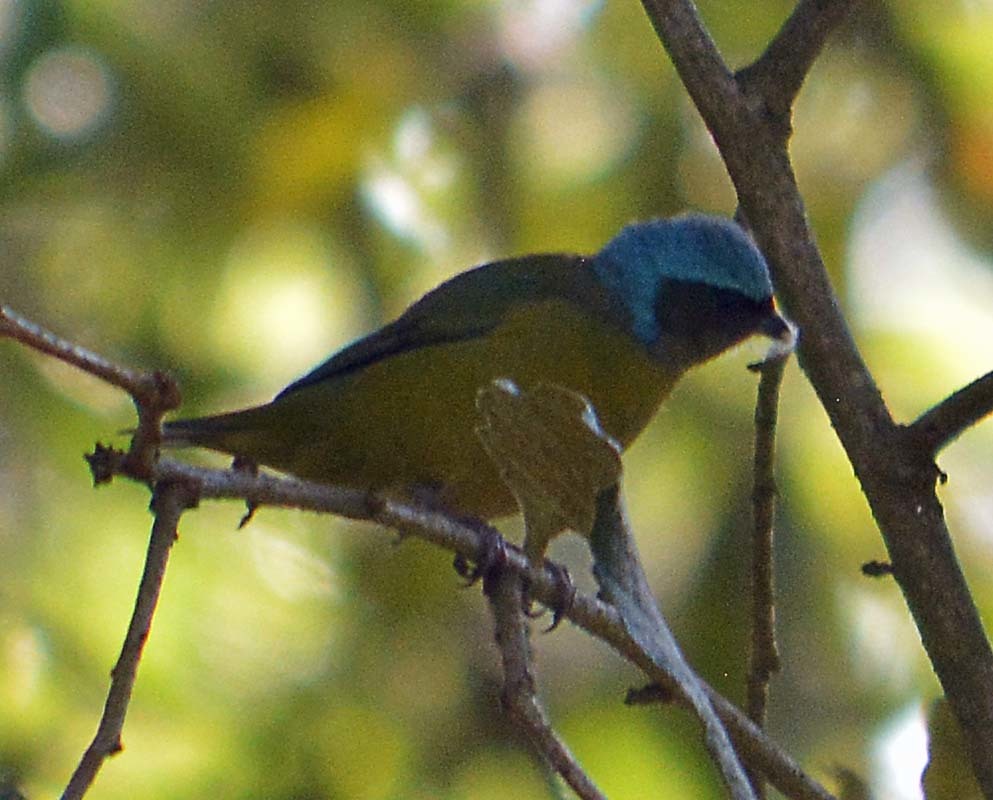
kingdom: Animalia
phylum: Chordata
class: Aves
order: Passeriformes
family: Fringillidae
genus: Euphonia
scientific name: Euphonia elegantissima
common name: Elegant euphonia
